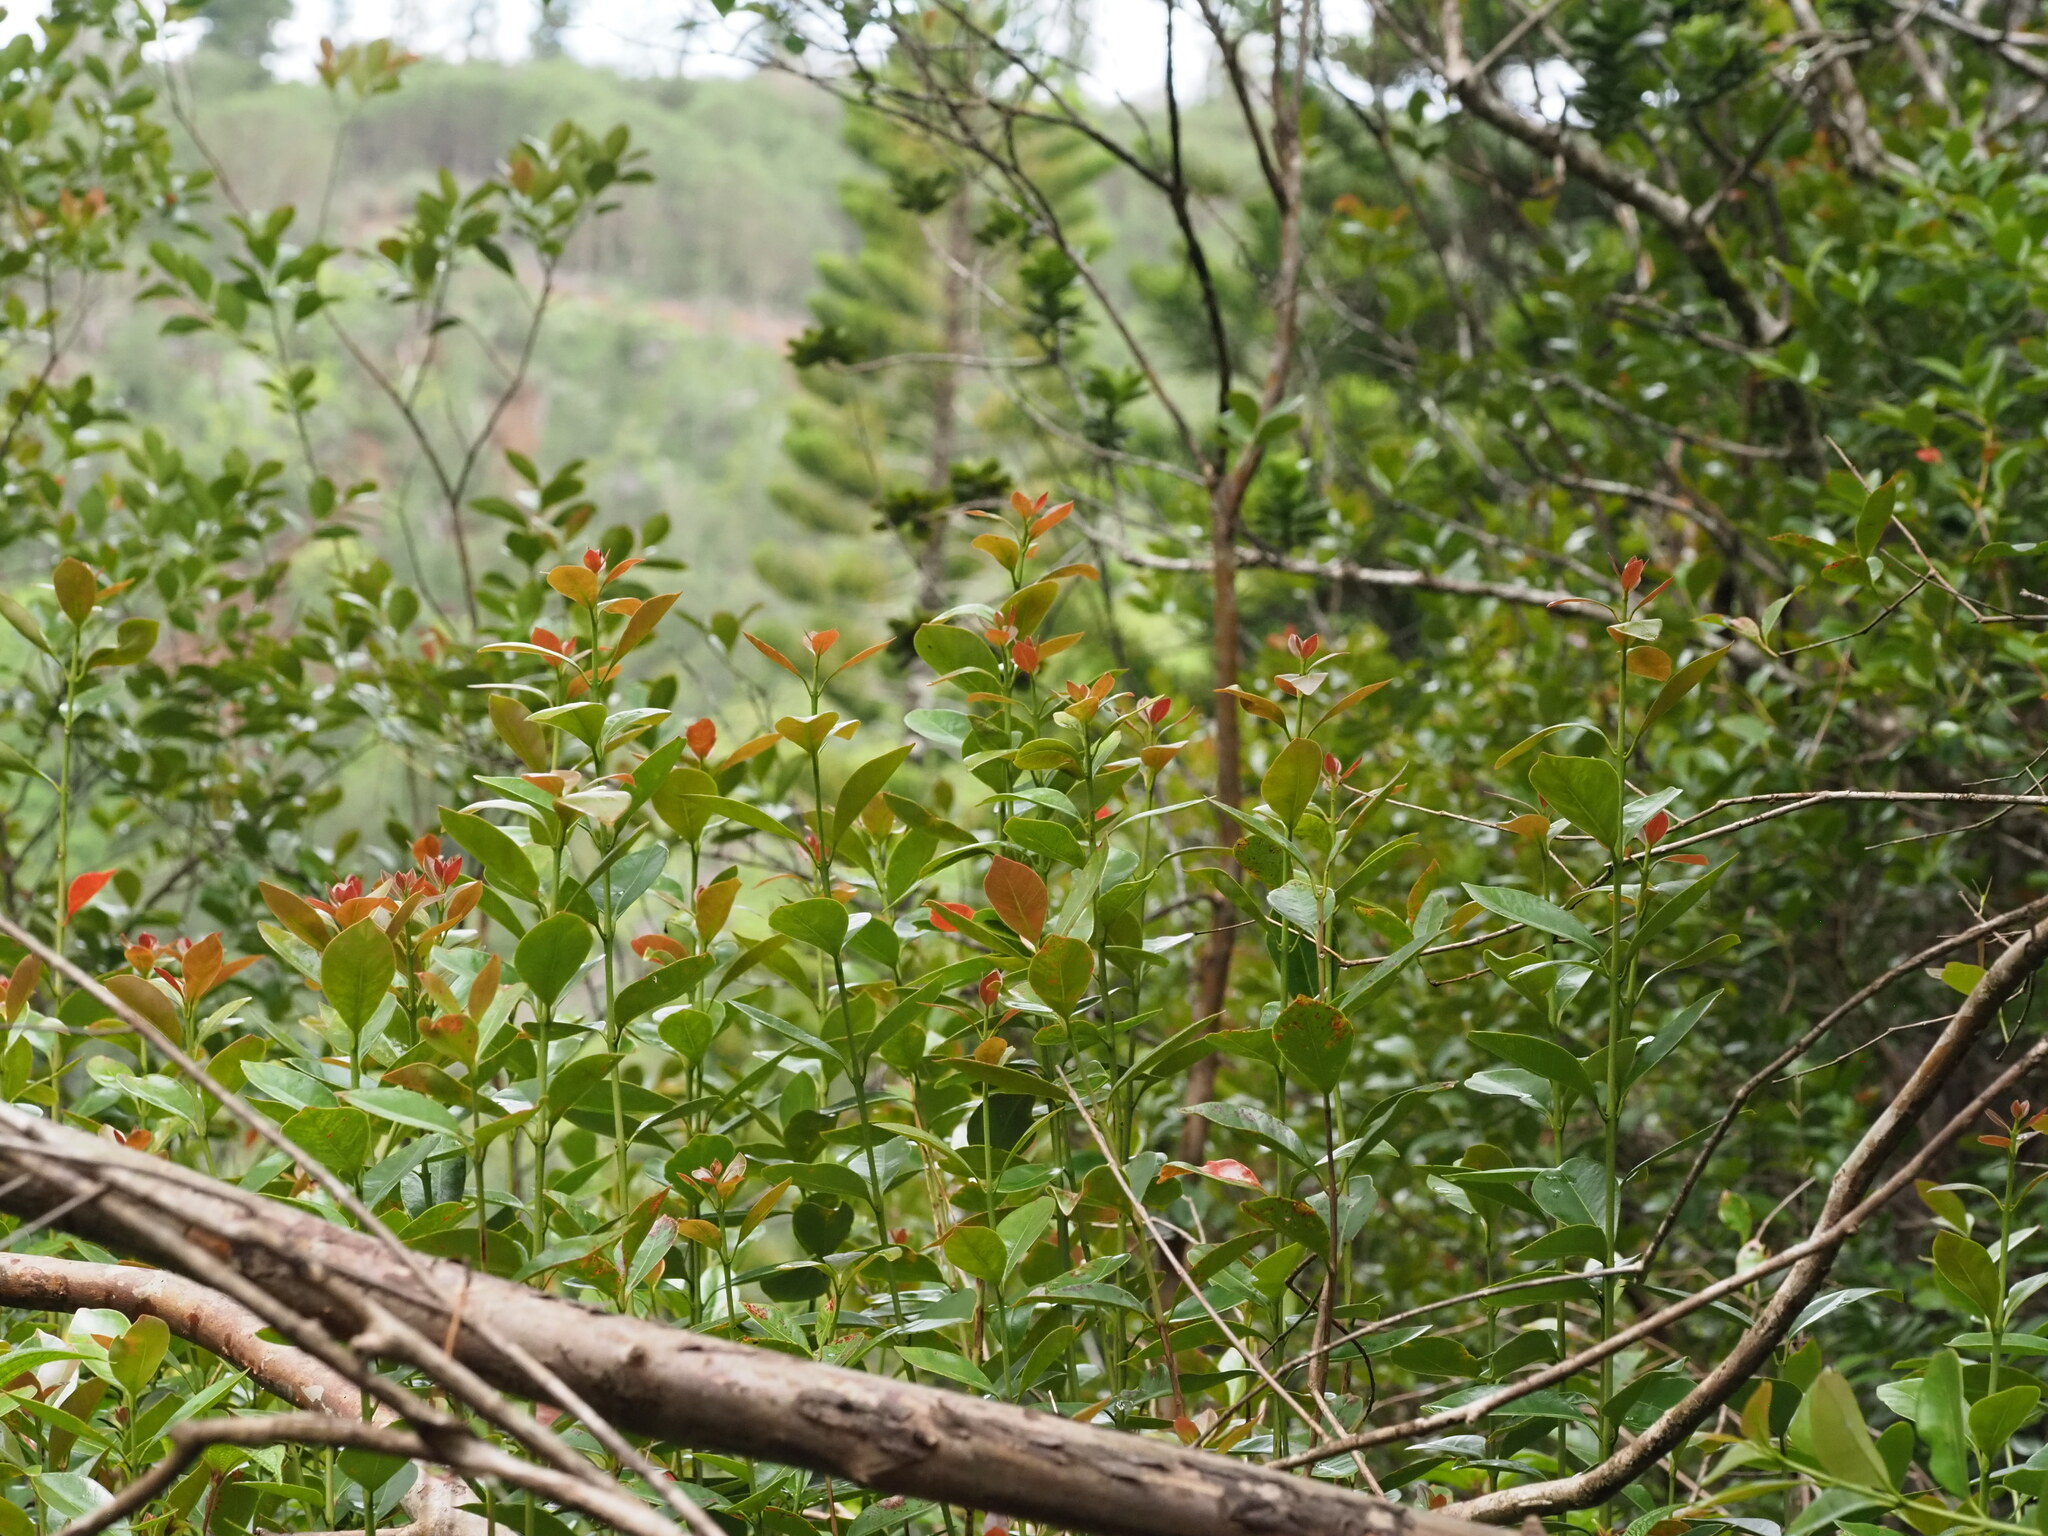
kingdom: Plantae
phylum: Tracheophyta
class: Magnoliopsida
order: Myrtales
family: Myrtaceae
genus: Psidium
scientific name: Psidium cattleianum
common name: Strawberry guava
